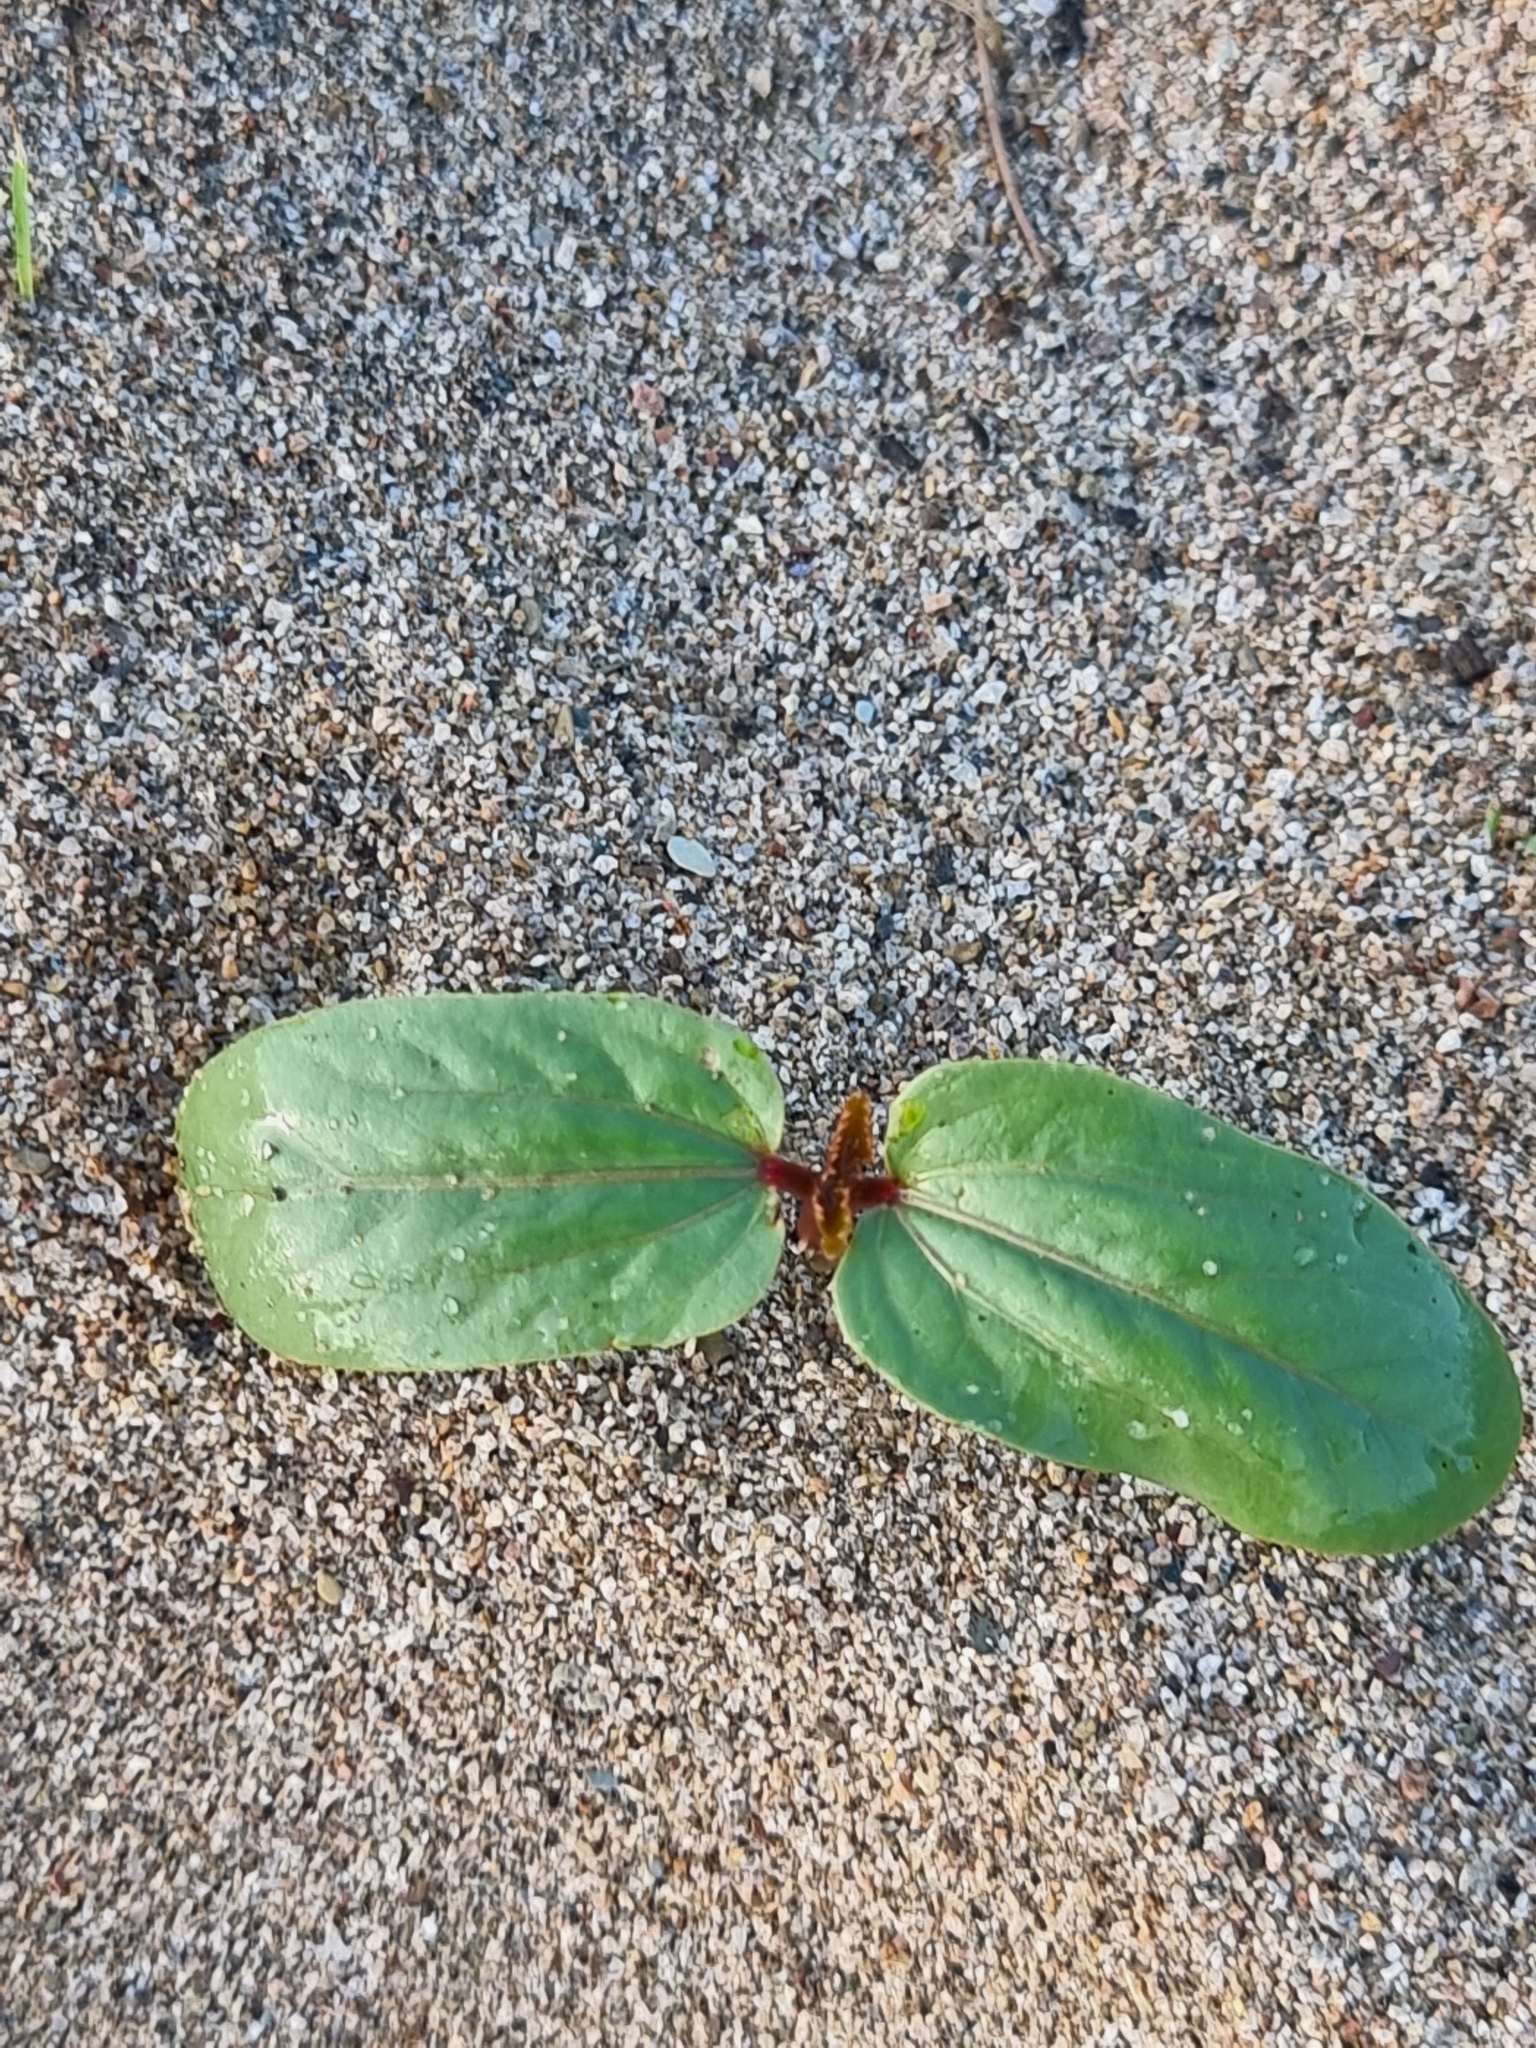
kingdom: Plantae
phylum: Tracheophyta
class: Magnoliopsida
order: Malpighiales
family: Euphorbiaceae
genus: Ricinus
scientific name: Ricinus communis
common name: Castor-oil-plant
